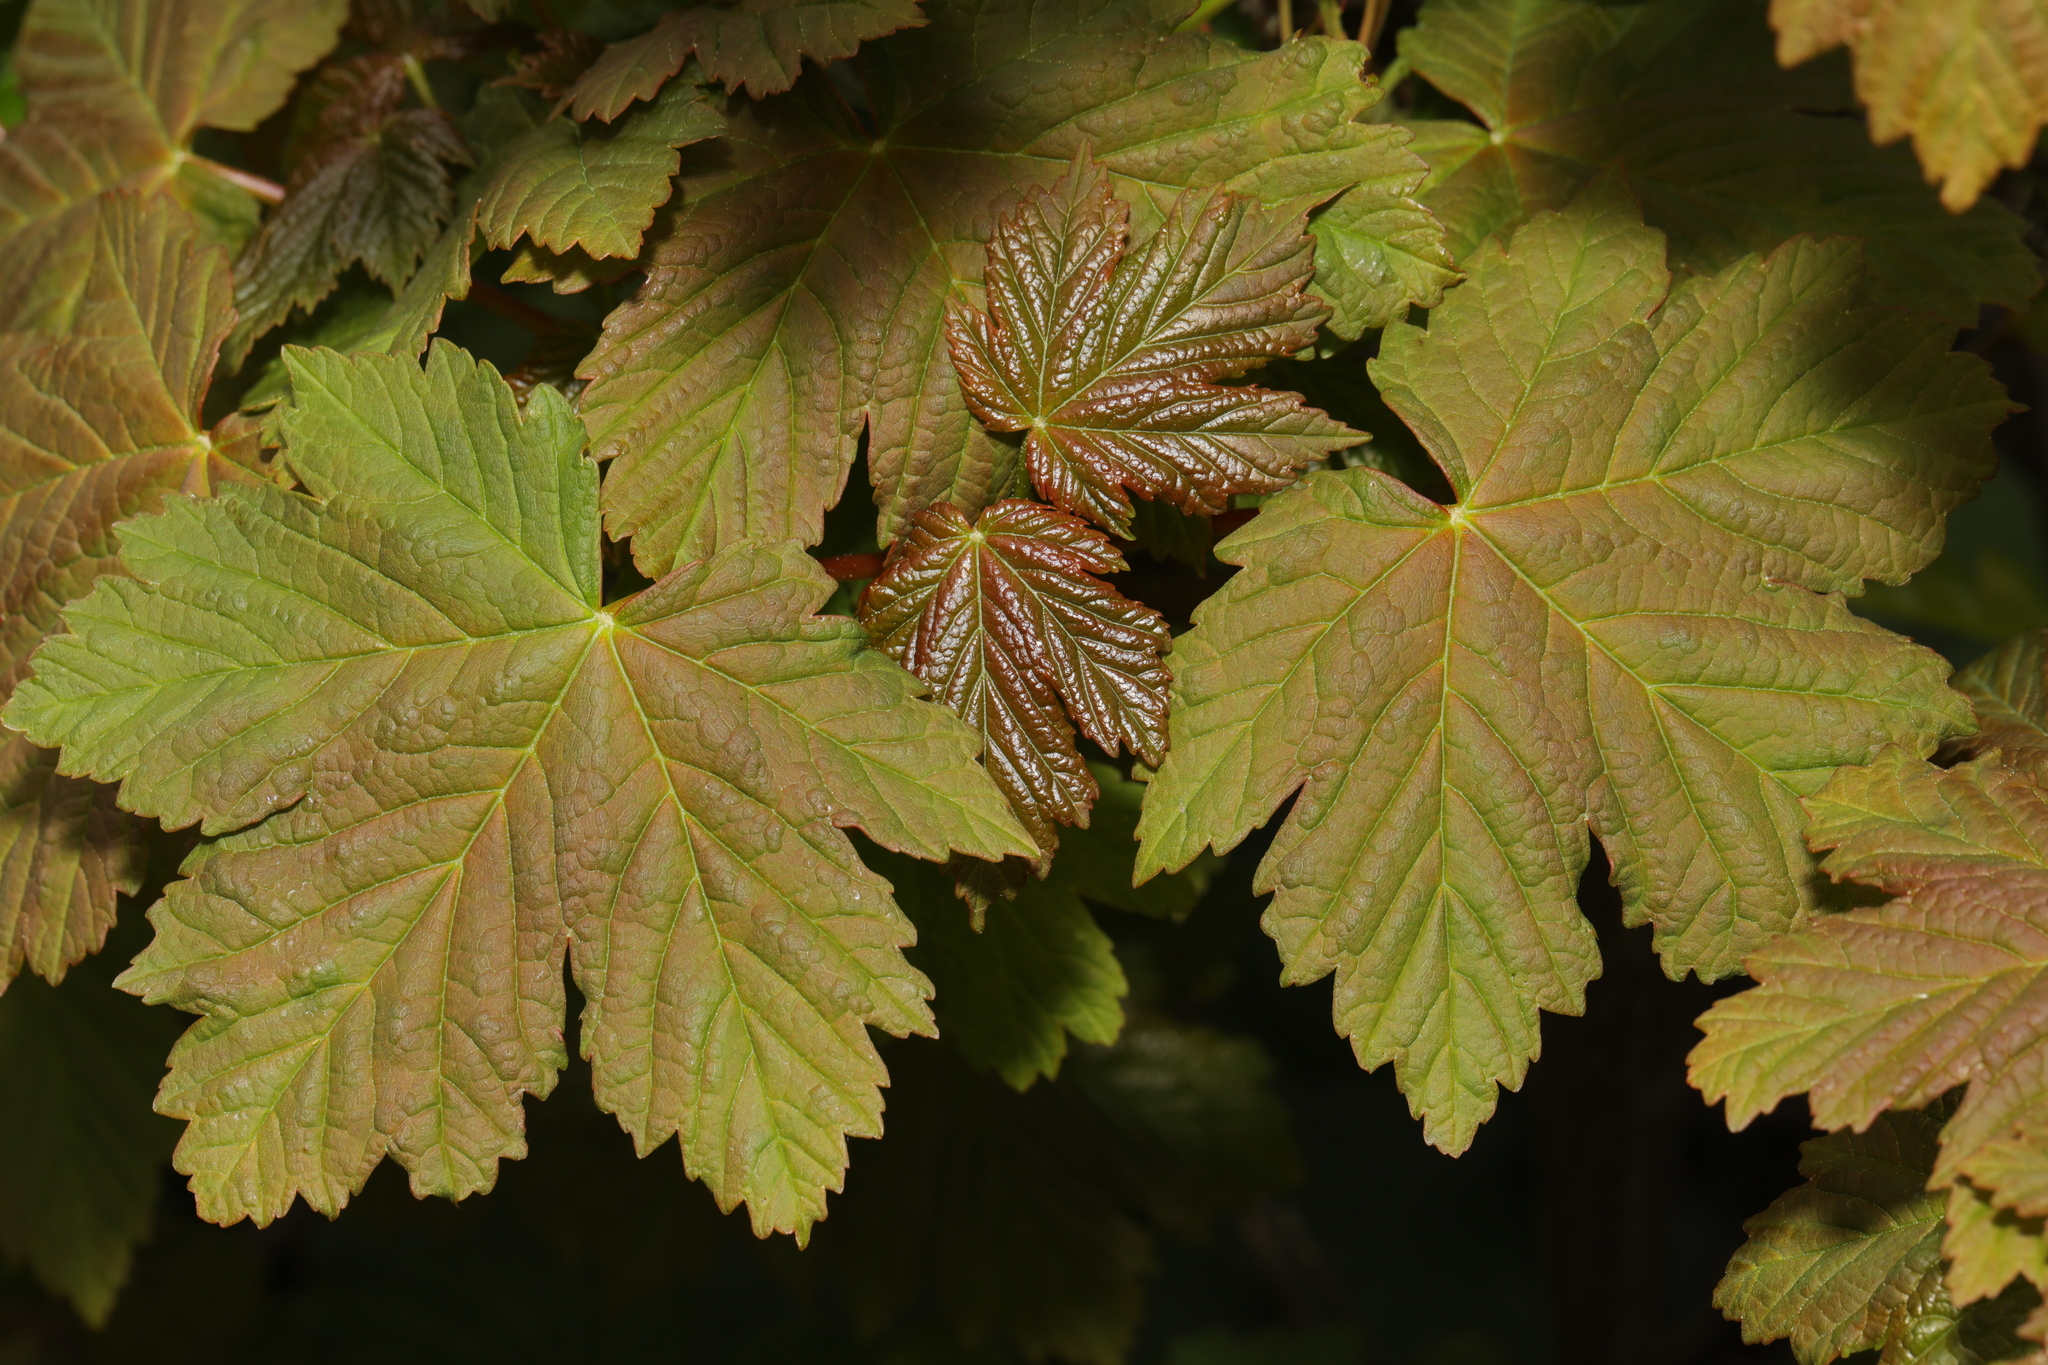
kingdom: Plantae
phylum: Tracheophyta
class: Magnoliopsida
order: Sapindales
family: Sapindaceae
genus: Acer
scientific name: Acer pseudoplatanus
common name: Sycamore
